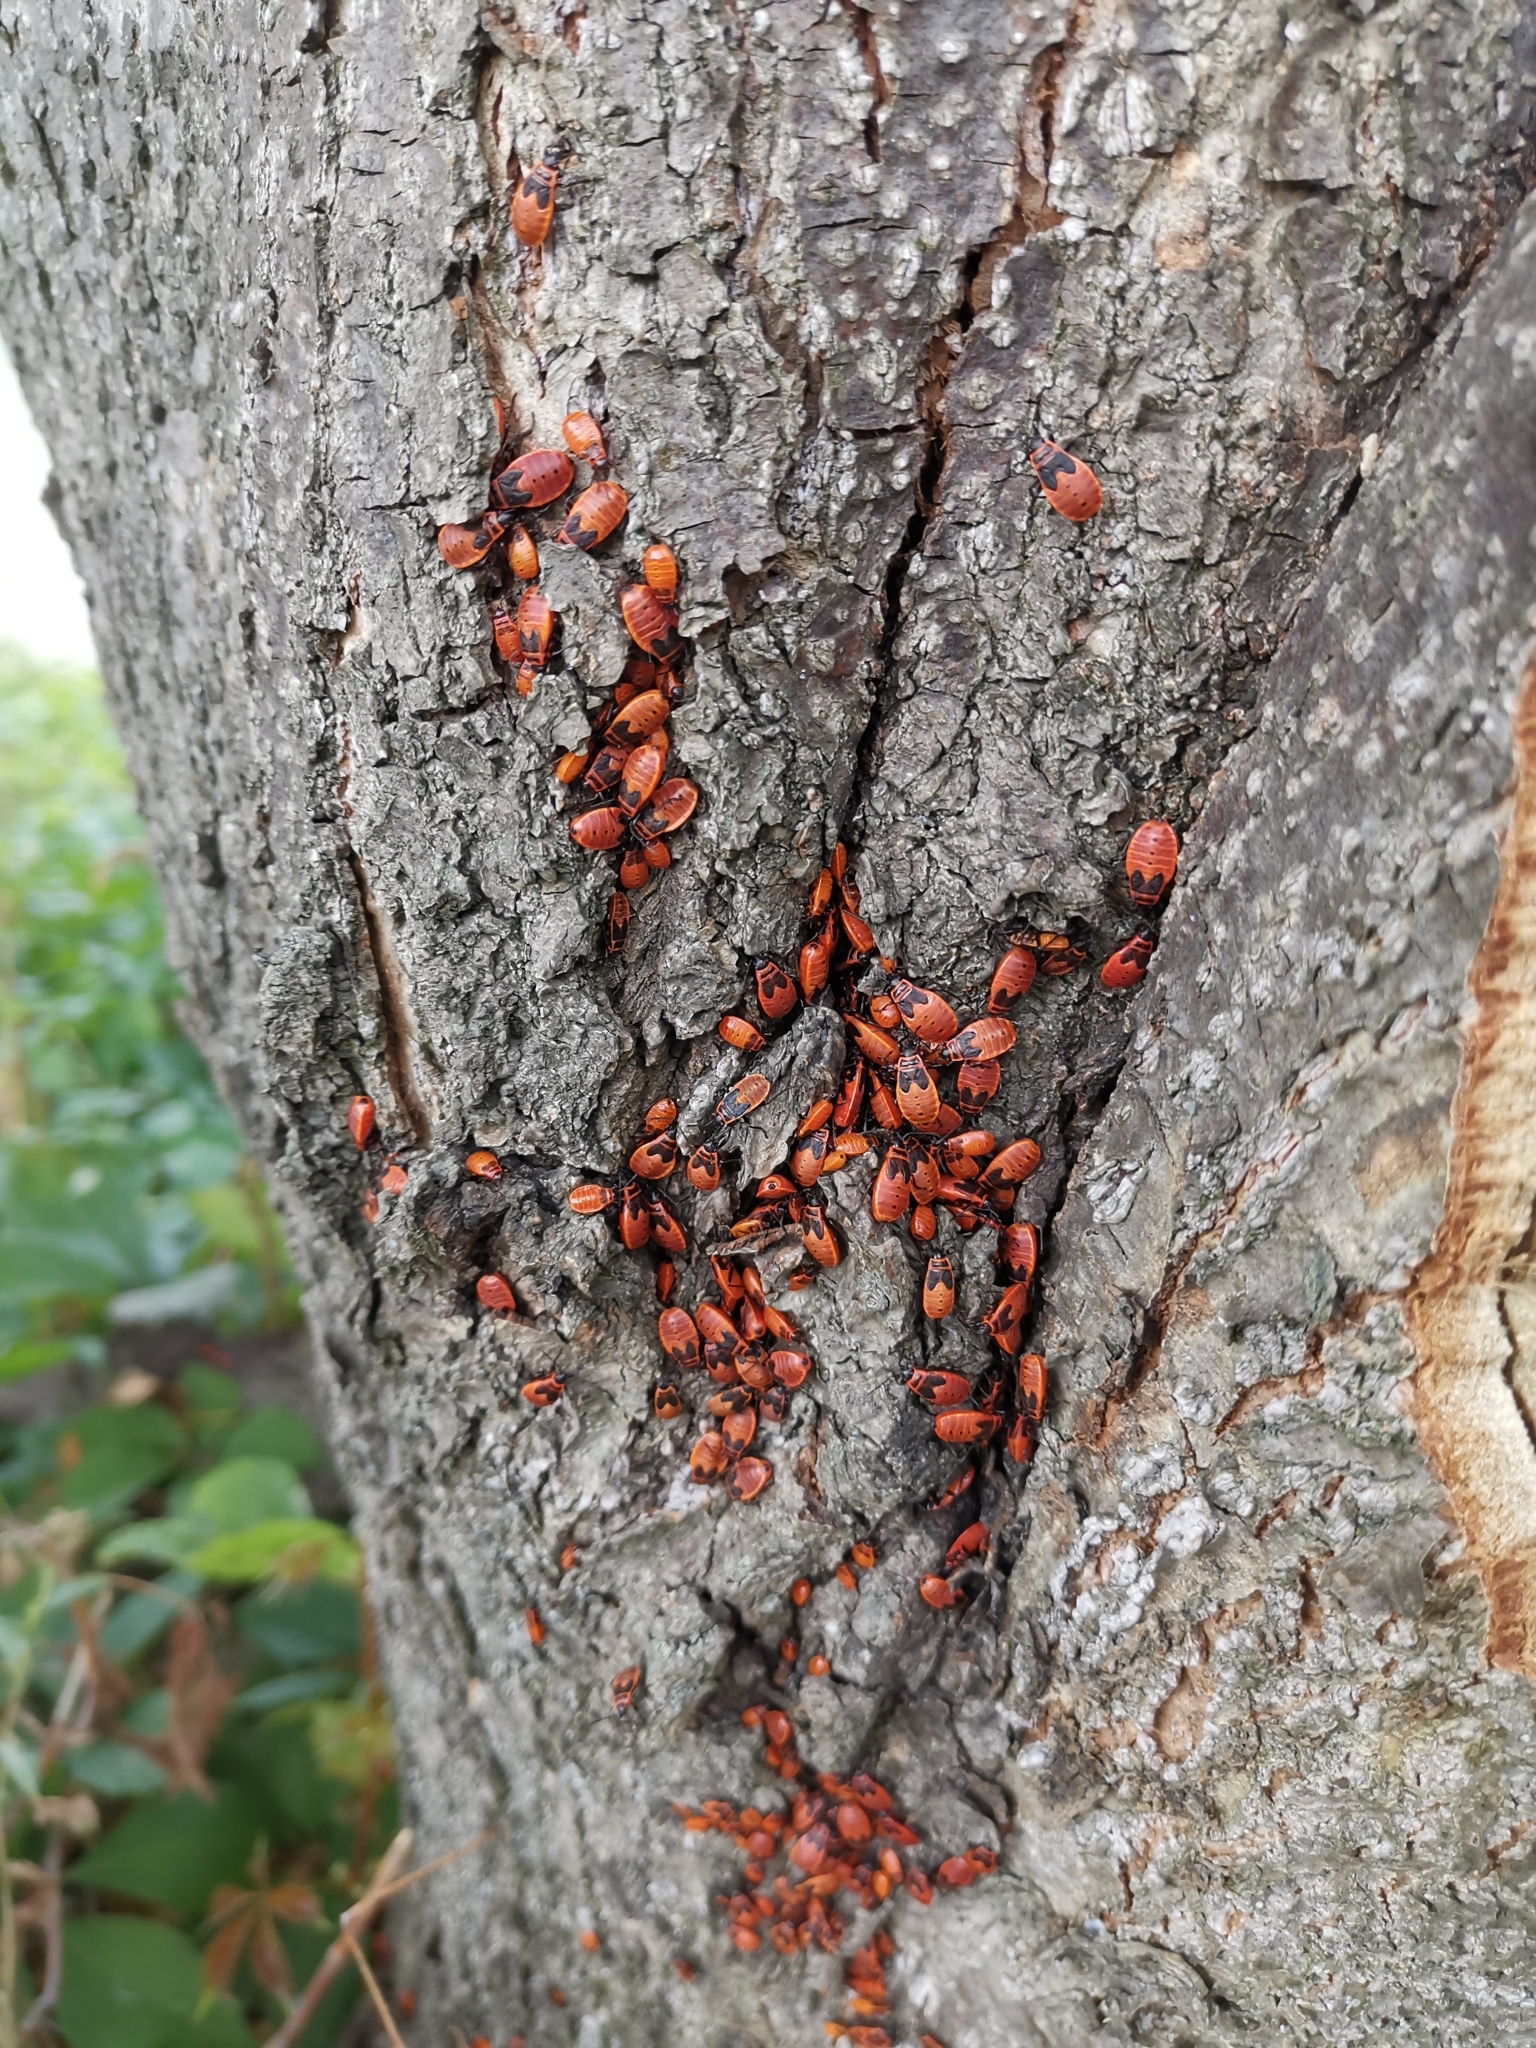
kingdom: Animalia
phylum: Arthropoda
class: Insecta
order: Hemiptera
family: Pyrrhocoridae
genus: Pyrrhocoris
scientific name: Pyrrhocoris apterus
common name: Firebug
